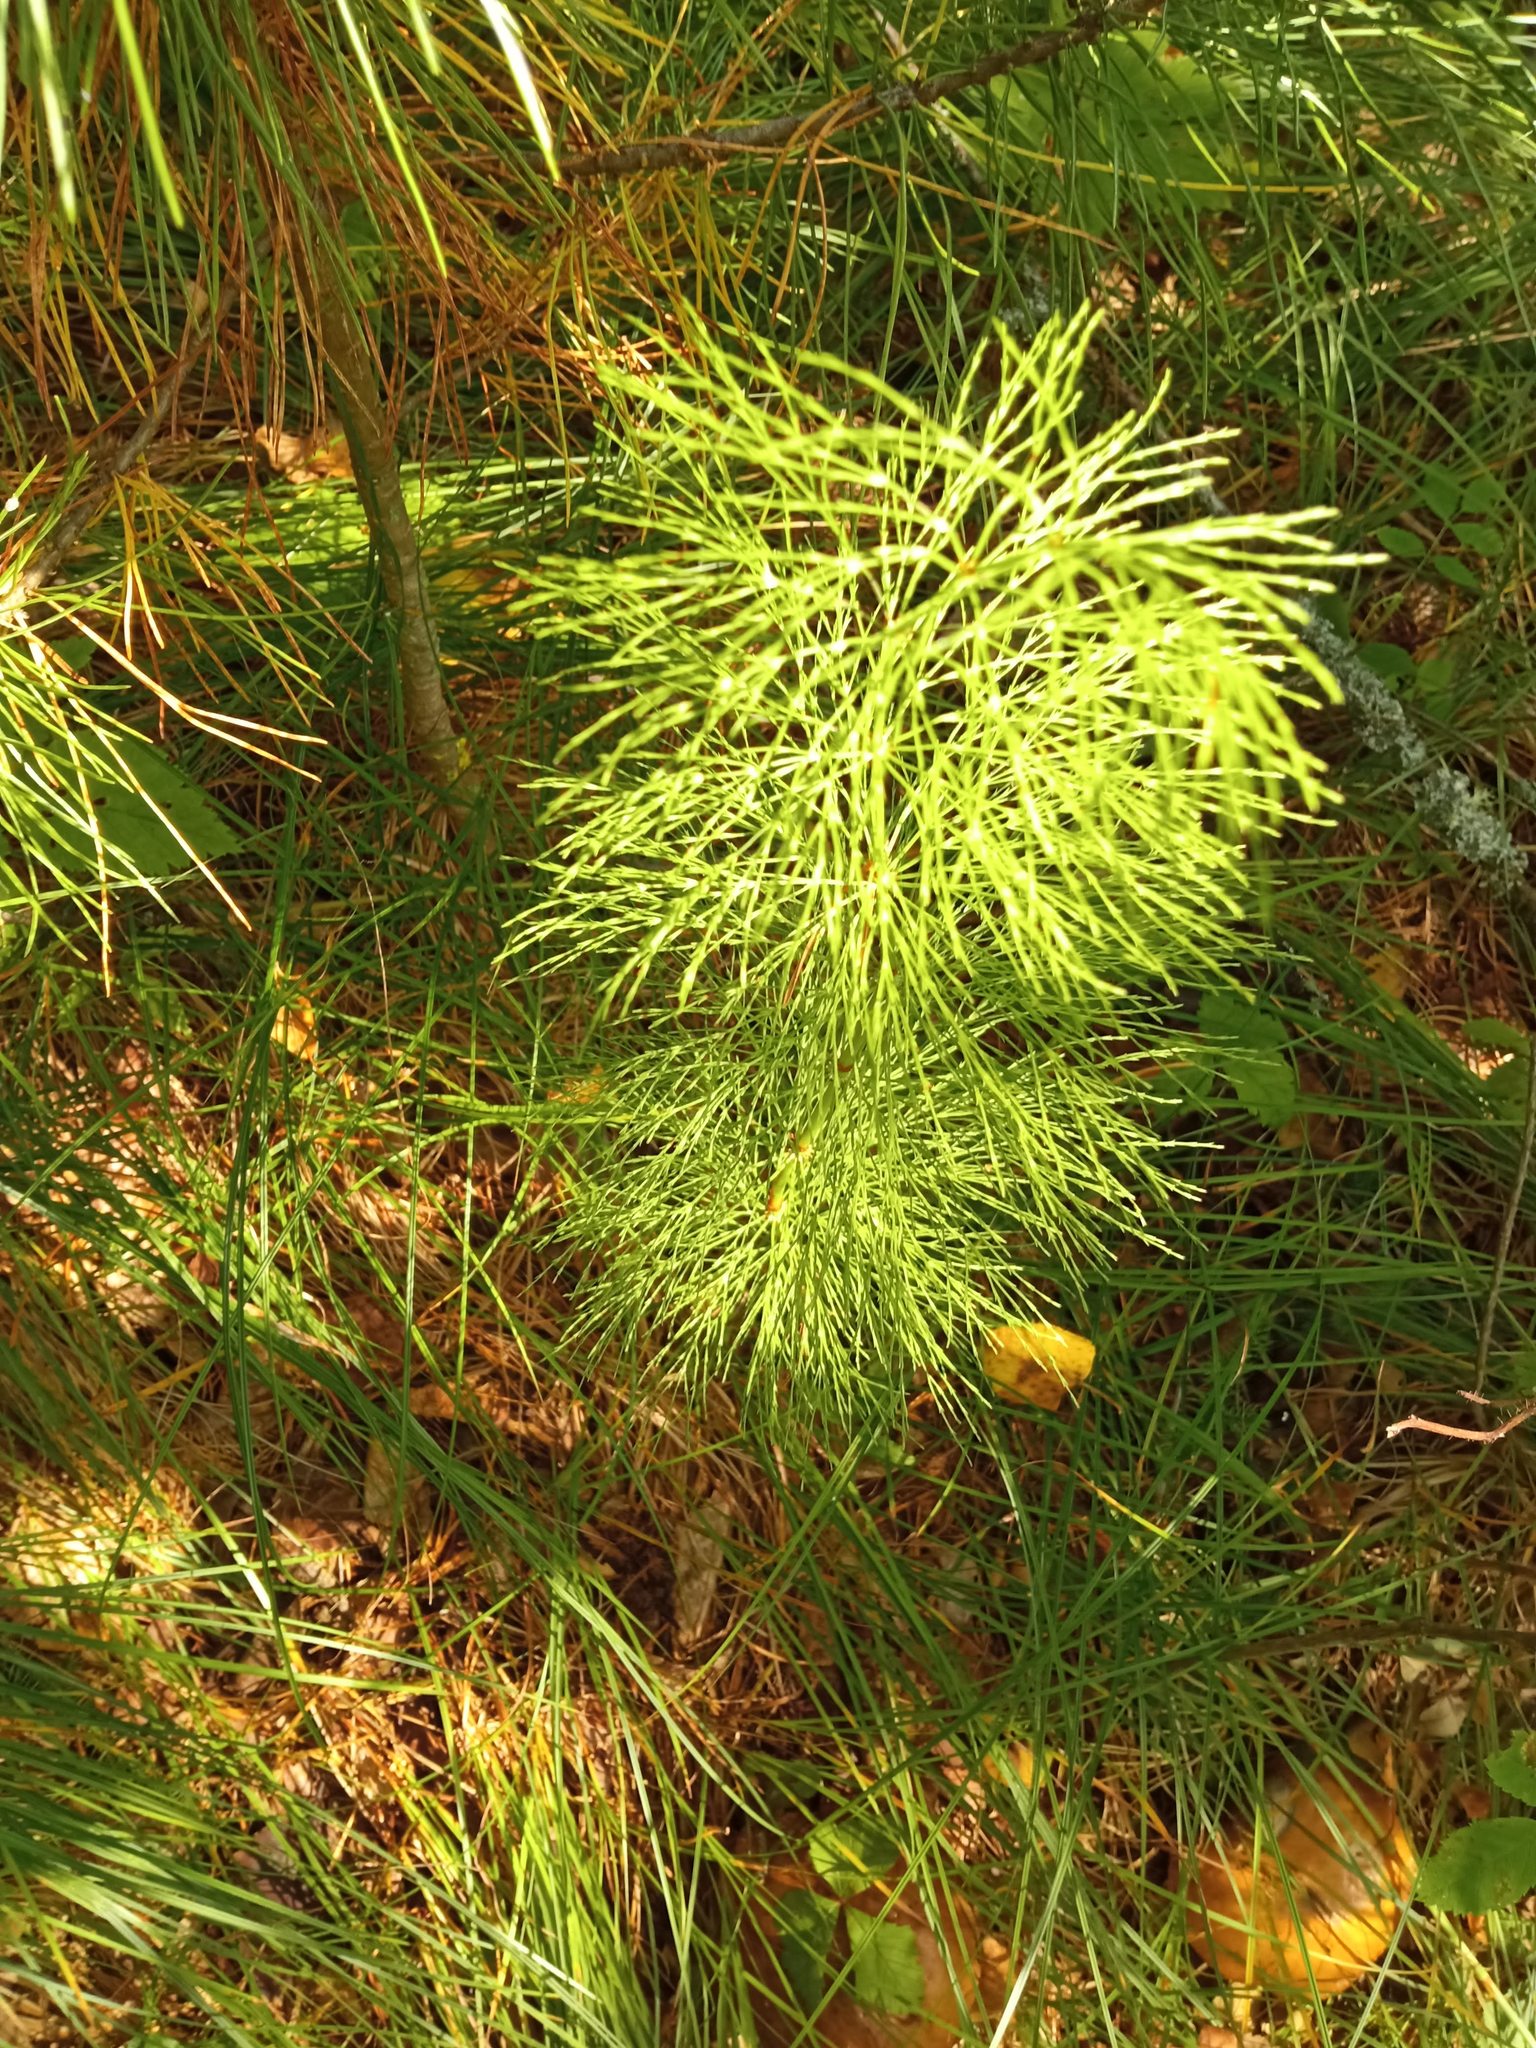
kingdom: Plantae
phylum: Tracheophyta
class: Polypodiopsida
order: Equisetales
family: Equisetaceae
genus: Equisetum
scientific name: Equisetum sylvaticum
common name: Wood horsetail
